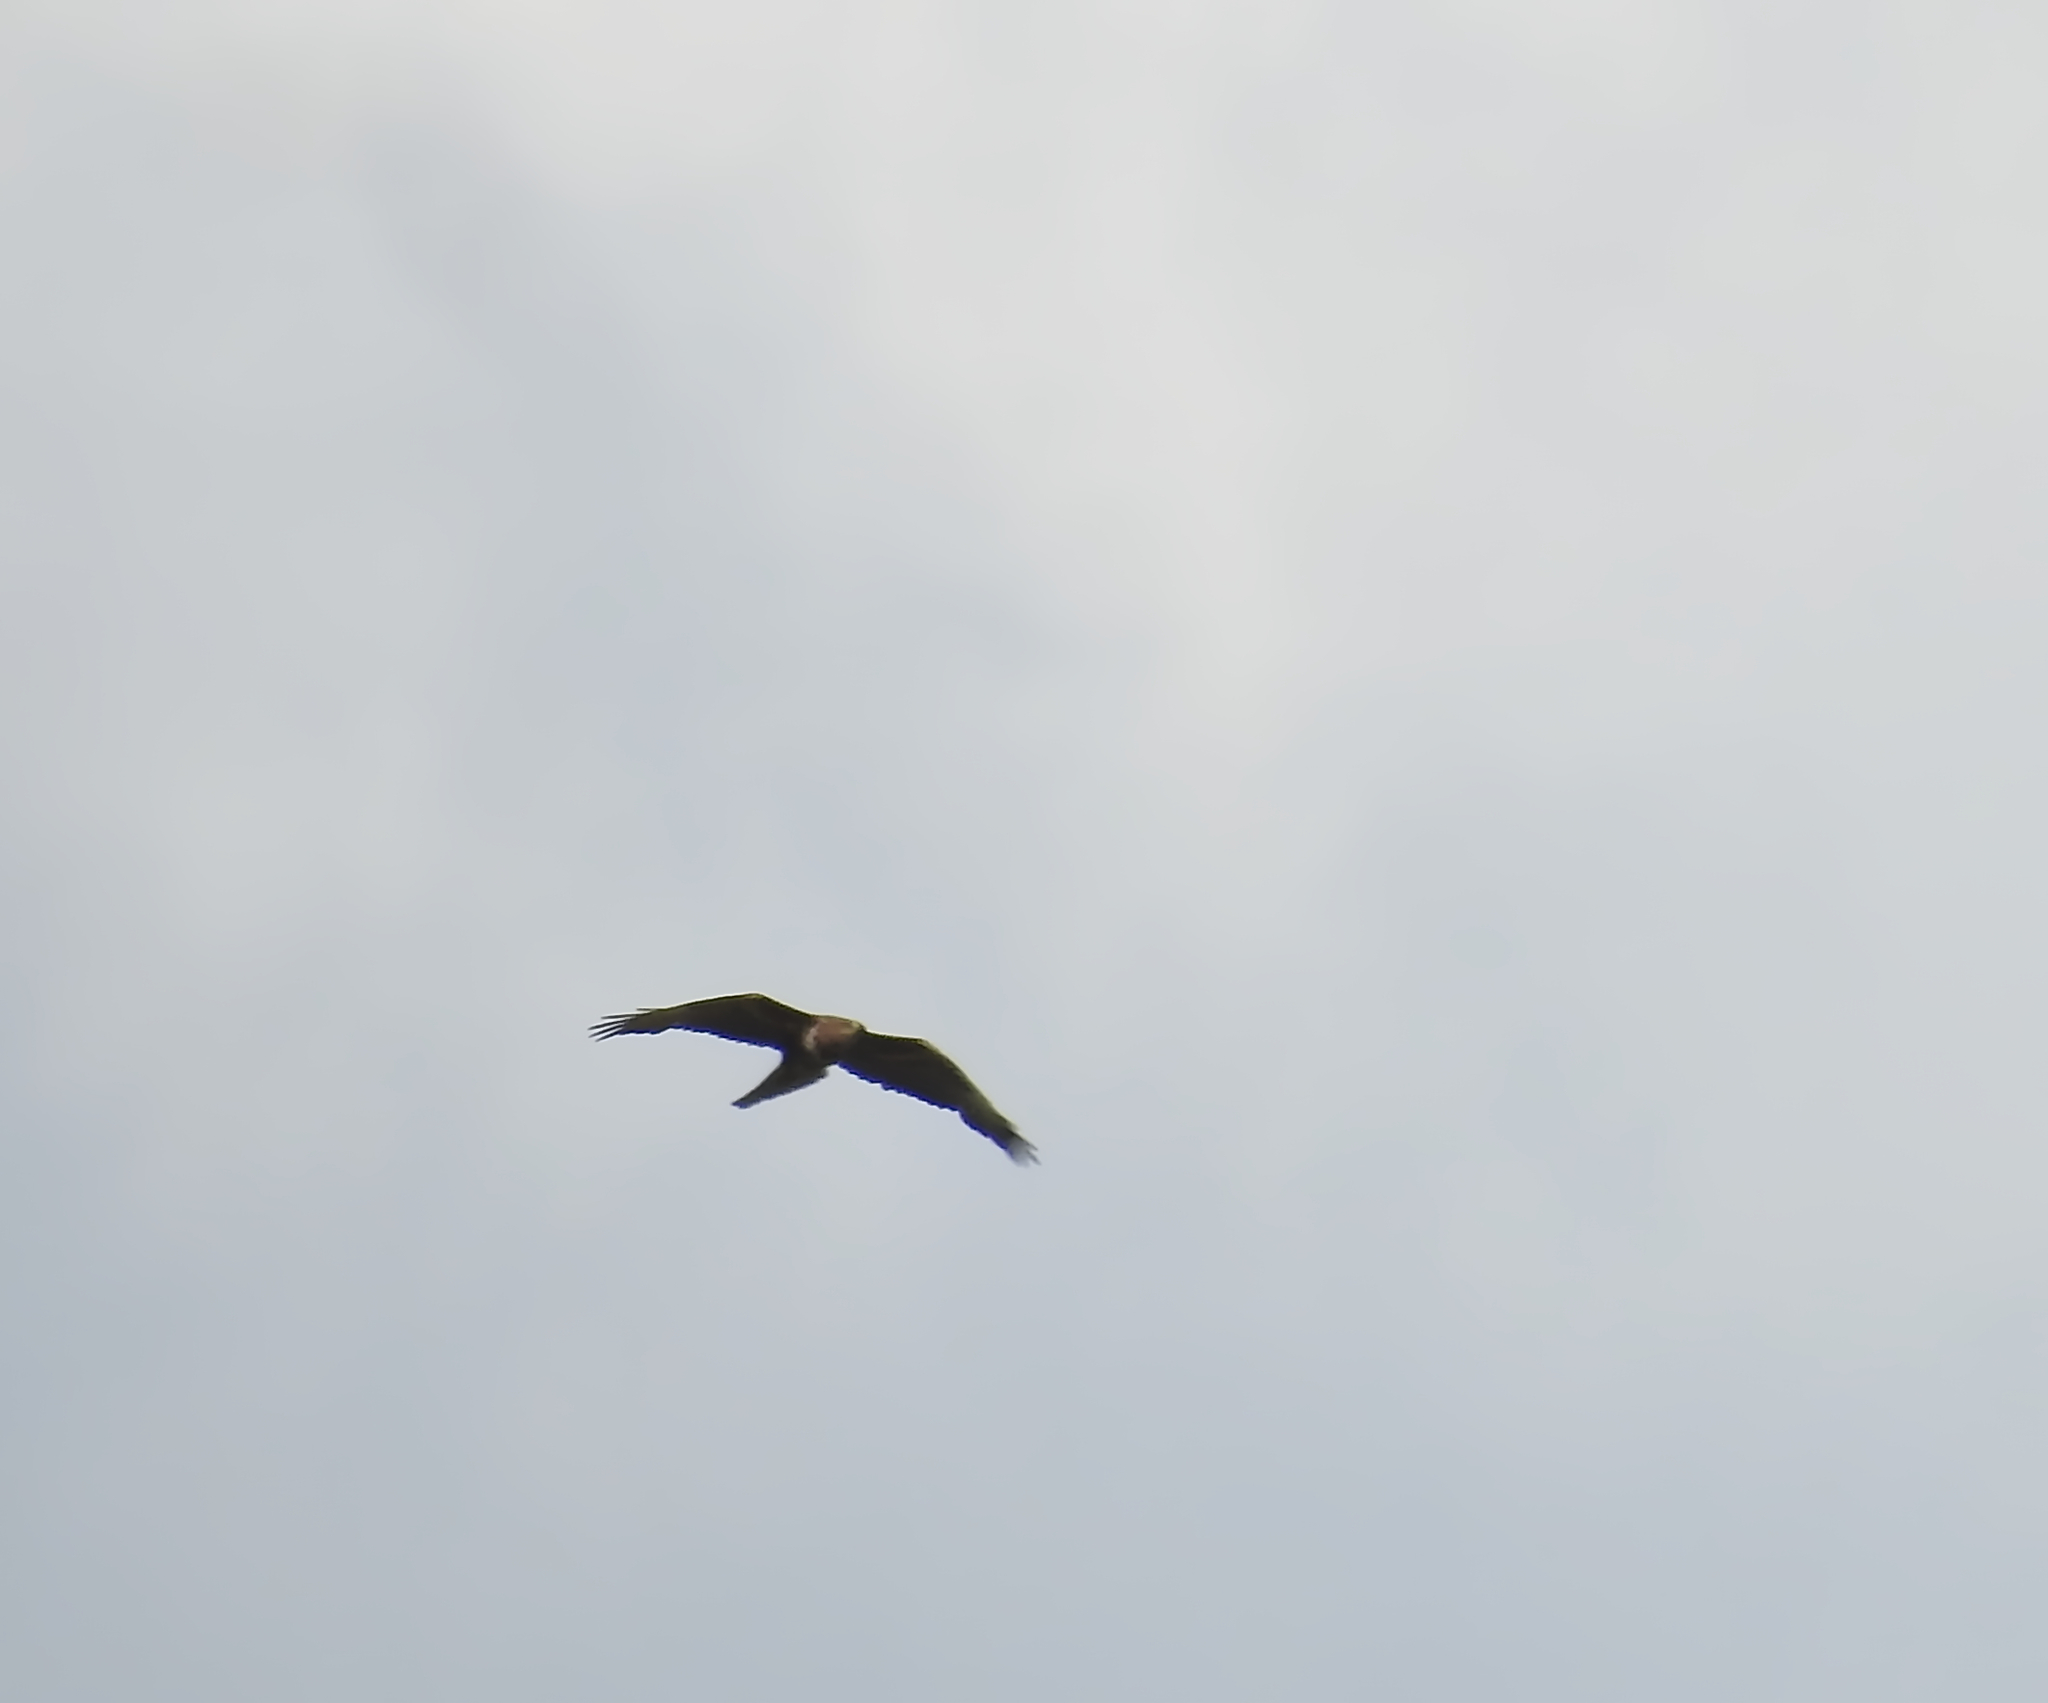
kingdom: Animalia
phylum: Chordata
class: Aves
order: Accipitriformes
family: Accipitridae
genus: Milvus
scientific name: Milvus migrans
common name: Black kite
